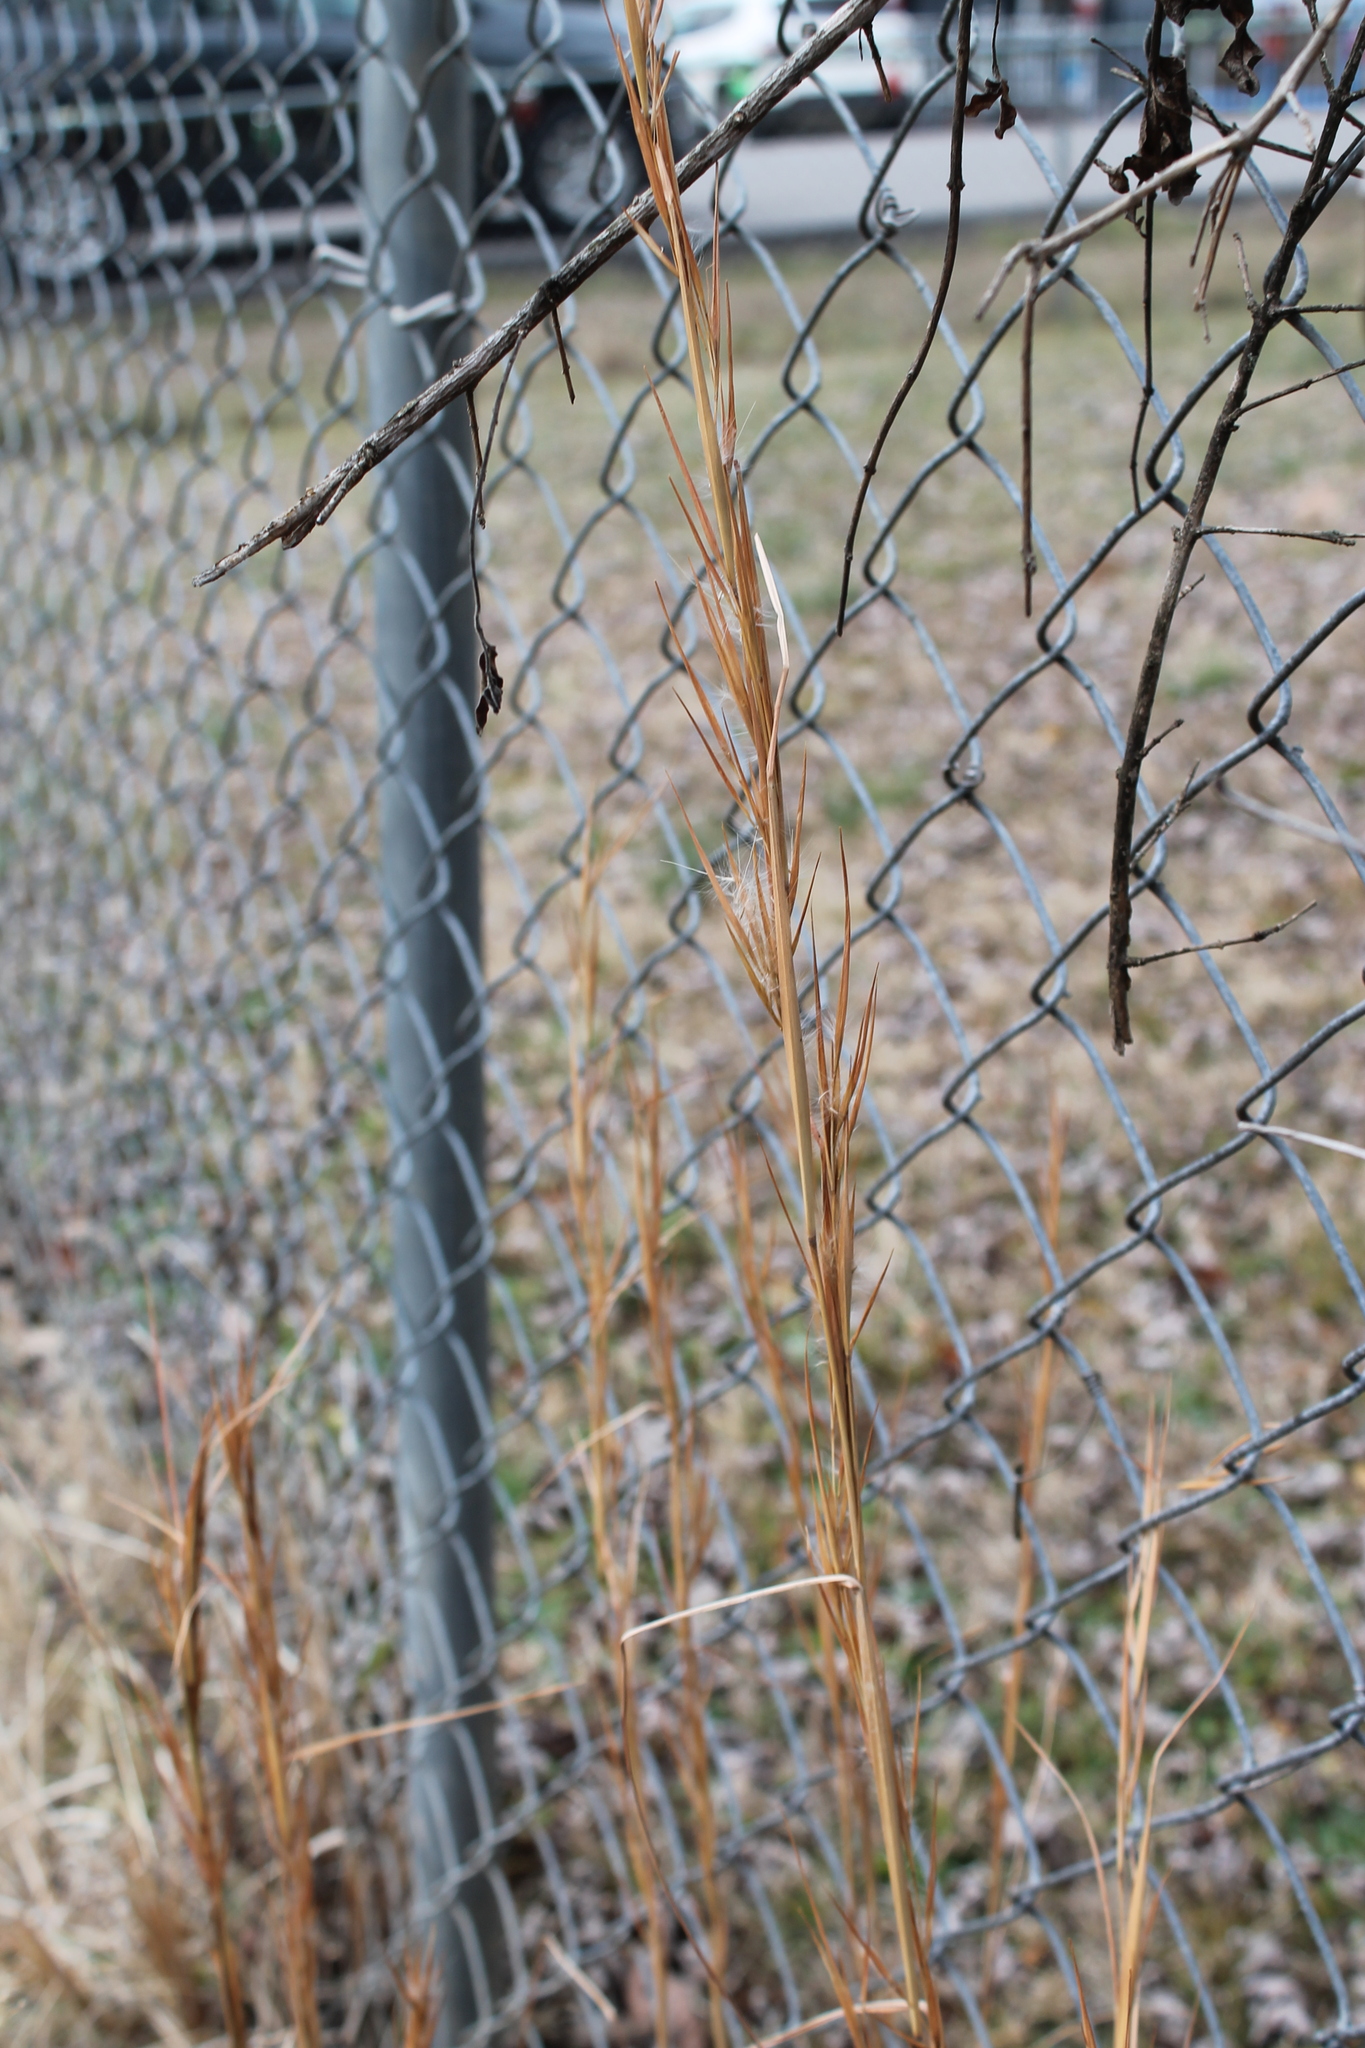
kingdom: Plantae
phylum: Tracheophyta
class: Liliopsida
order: Poales
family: Poaceae
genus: Andropogon
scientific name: Andropogon virginicus
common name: Broomsedge bluestem
